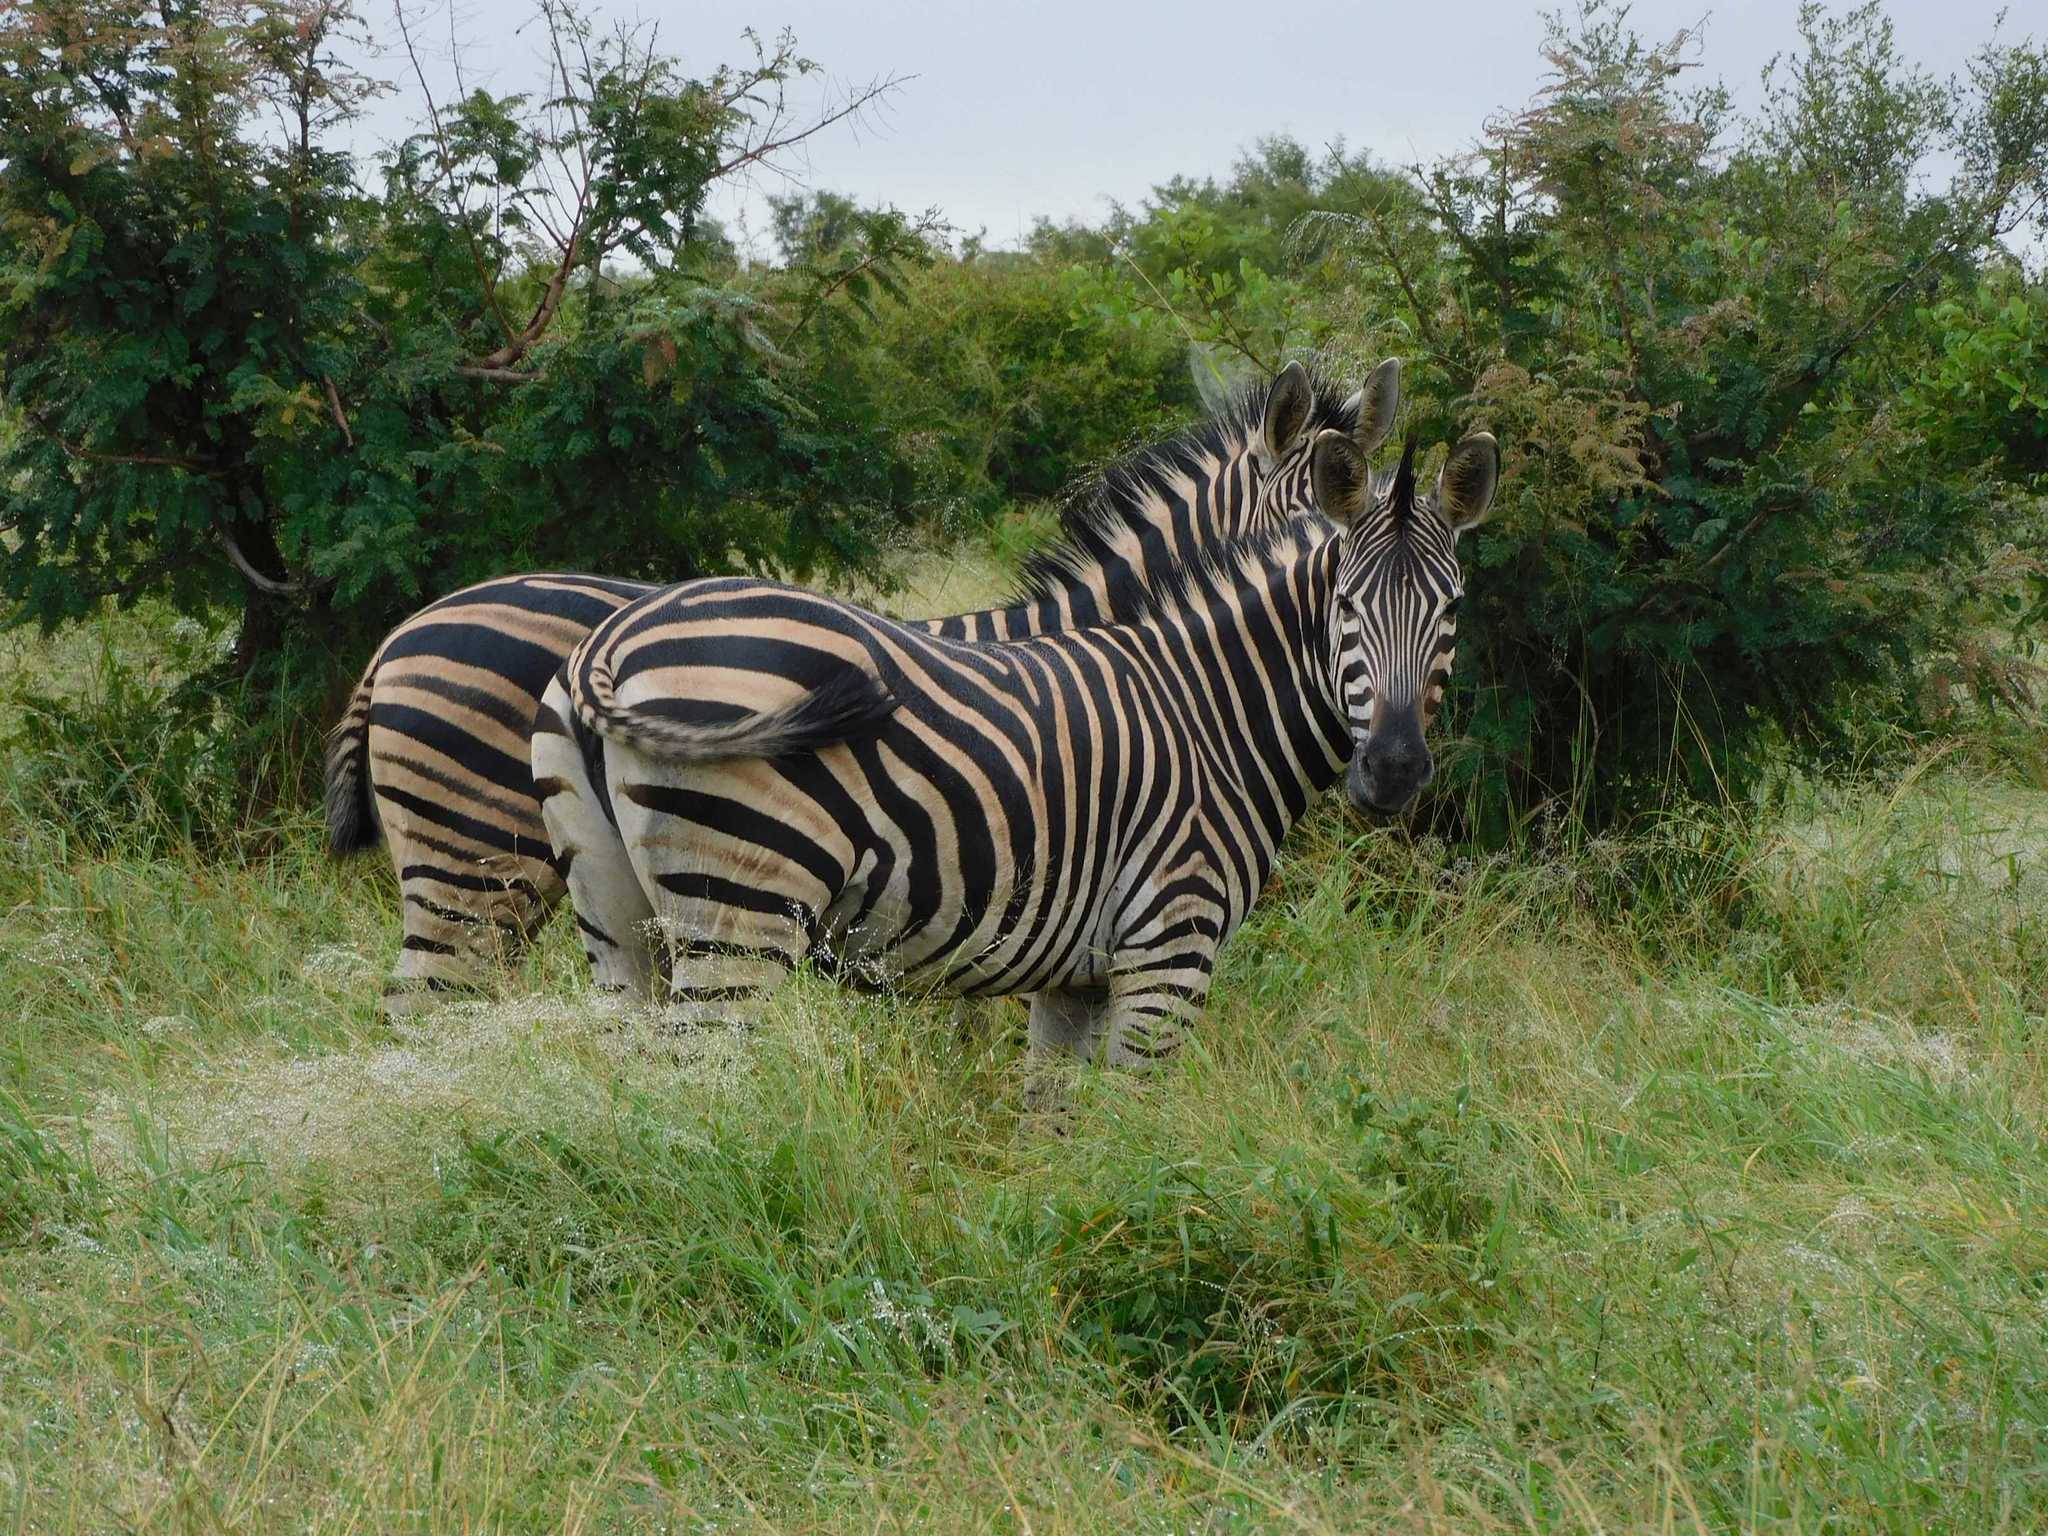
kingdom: Animalia
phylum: Chordata
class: Mammalia
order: Perissodactyla
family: Equidae
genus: Equus
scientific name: Equus quagga
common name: Plains zebra
